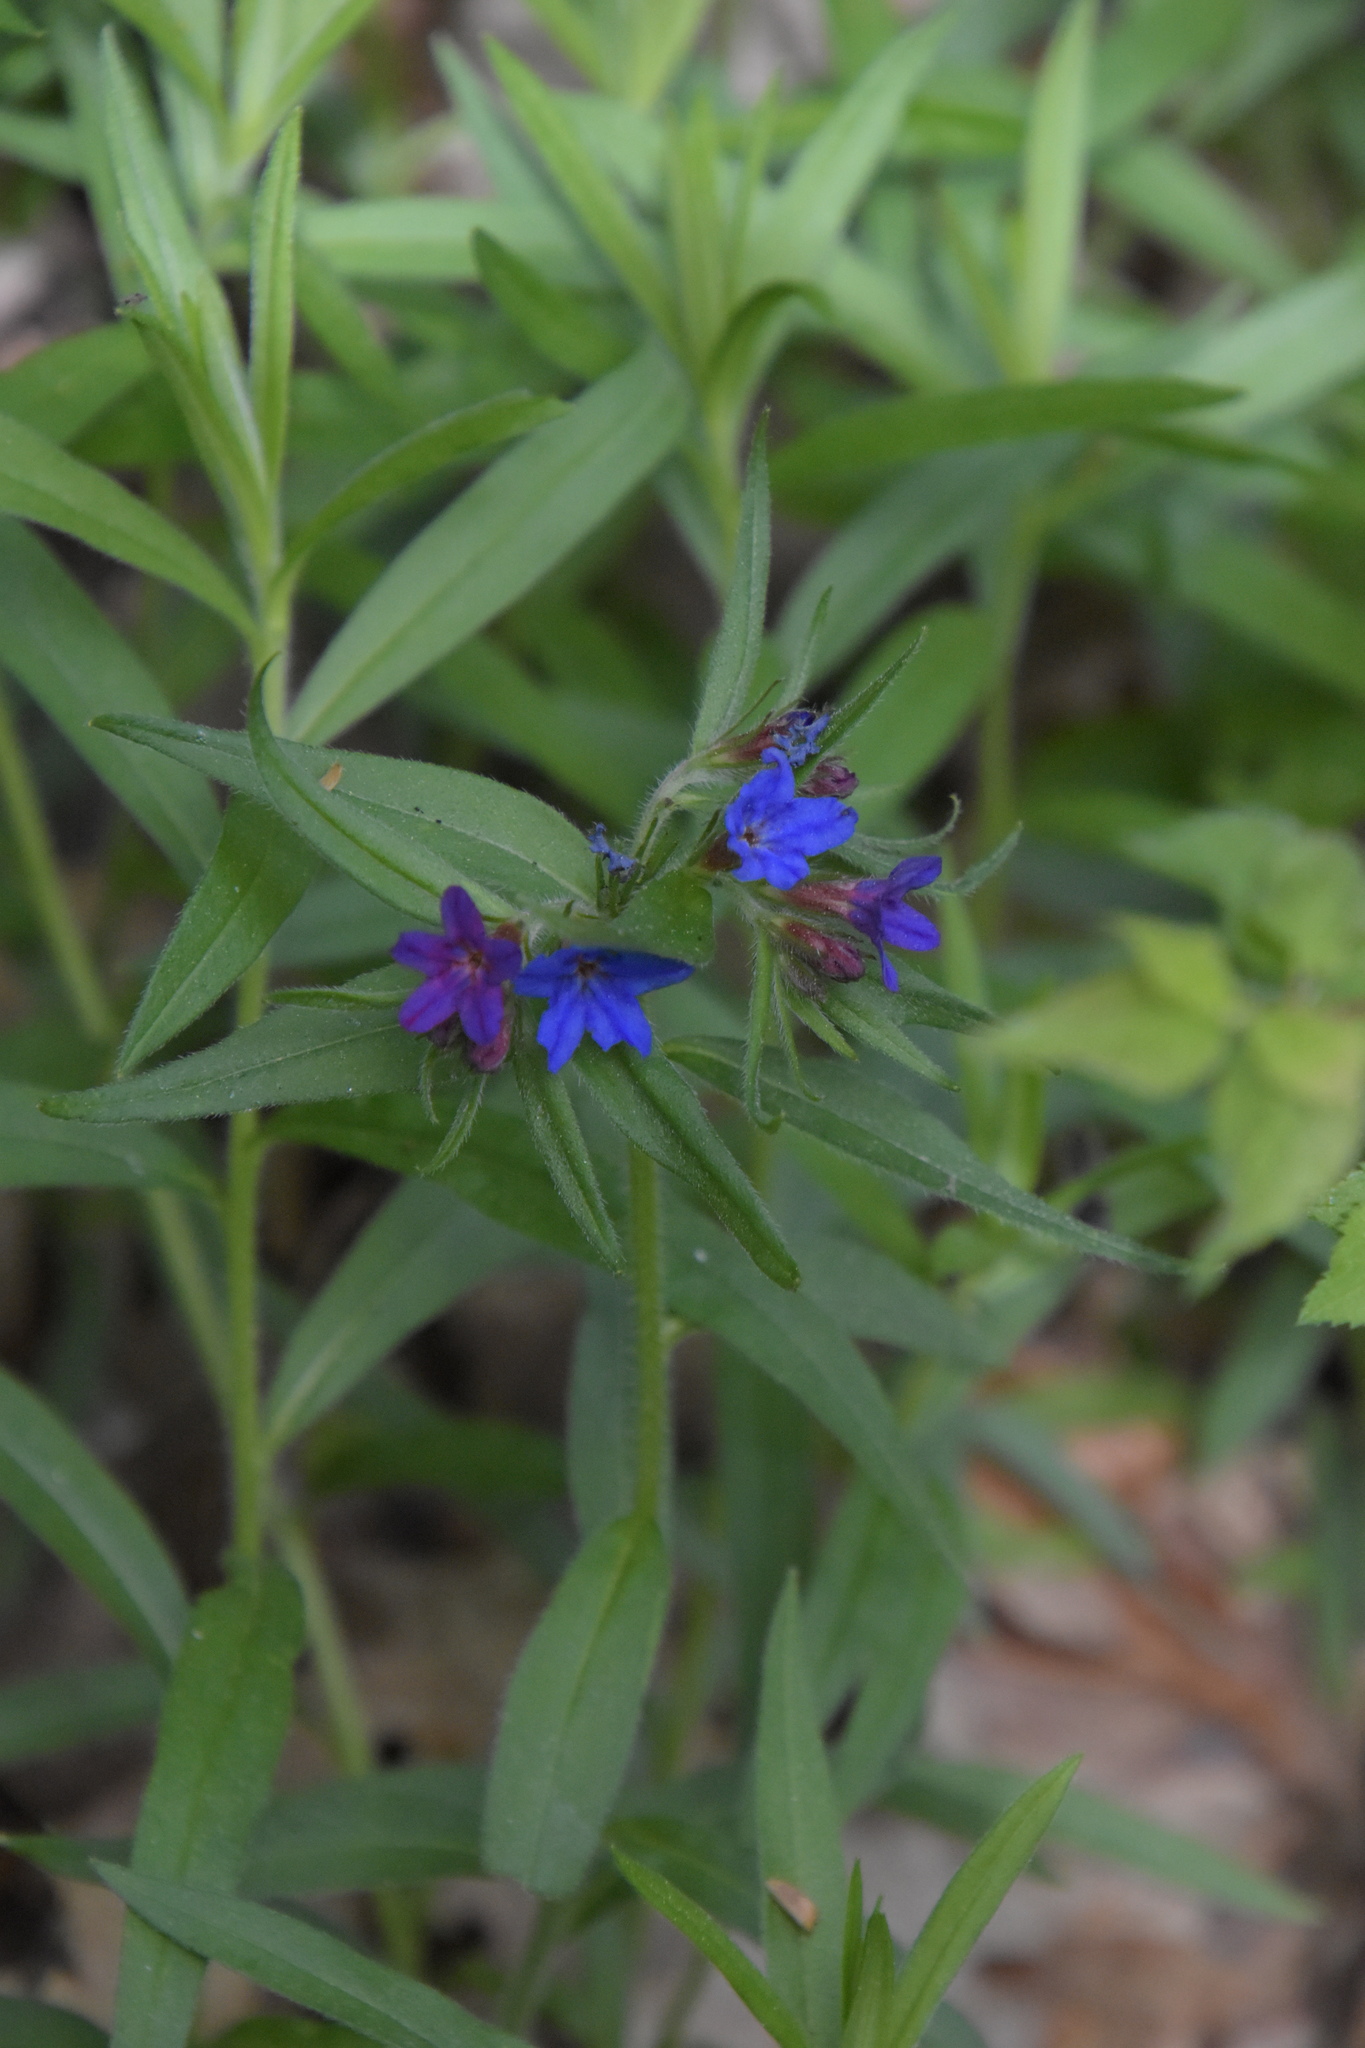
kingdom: Plantae
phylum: Tracheophyta
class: Magnoliopsida
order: Boraginales
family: Boraginaceae
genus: Aegonychon
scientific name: Aegonychon purpurocaeruleum
